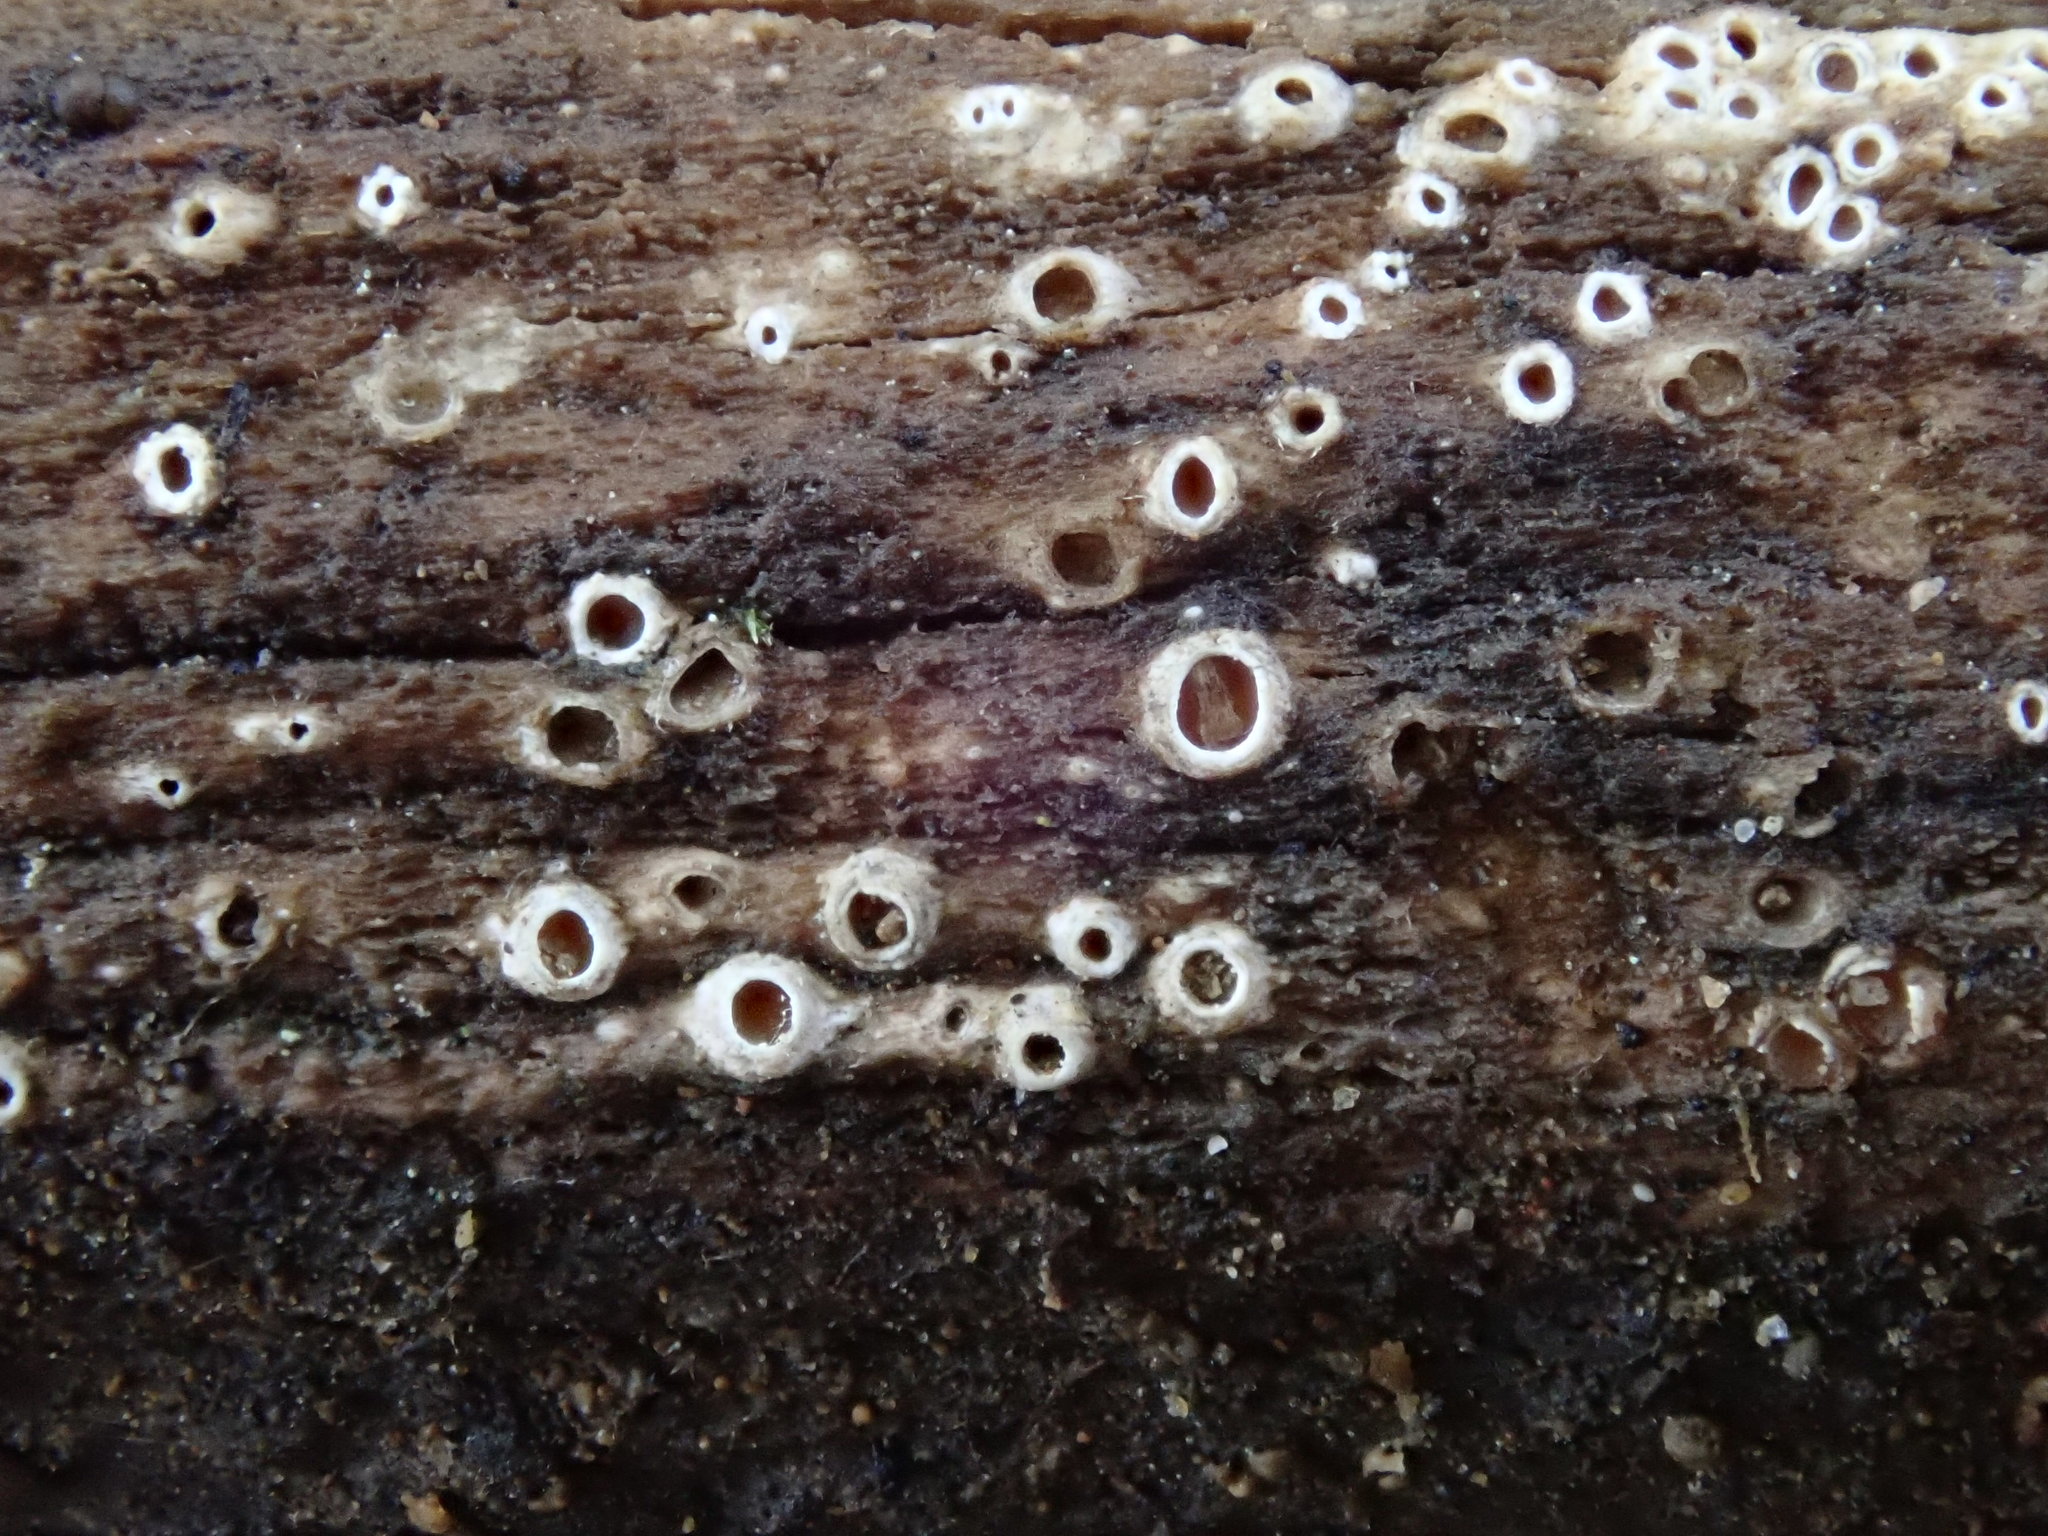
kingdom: Fungi
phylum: Ascomycota
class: Lecanoromycetes
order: Ostropales
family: Stictidaceae
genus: Stictis
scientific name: Stictis radiata
